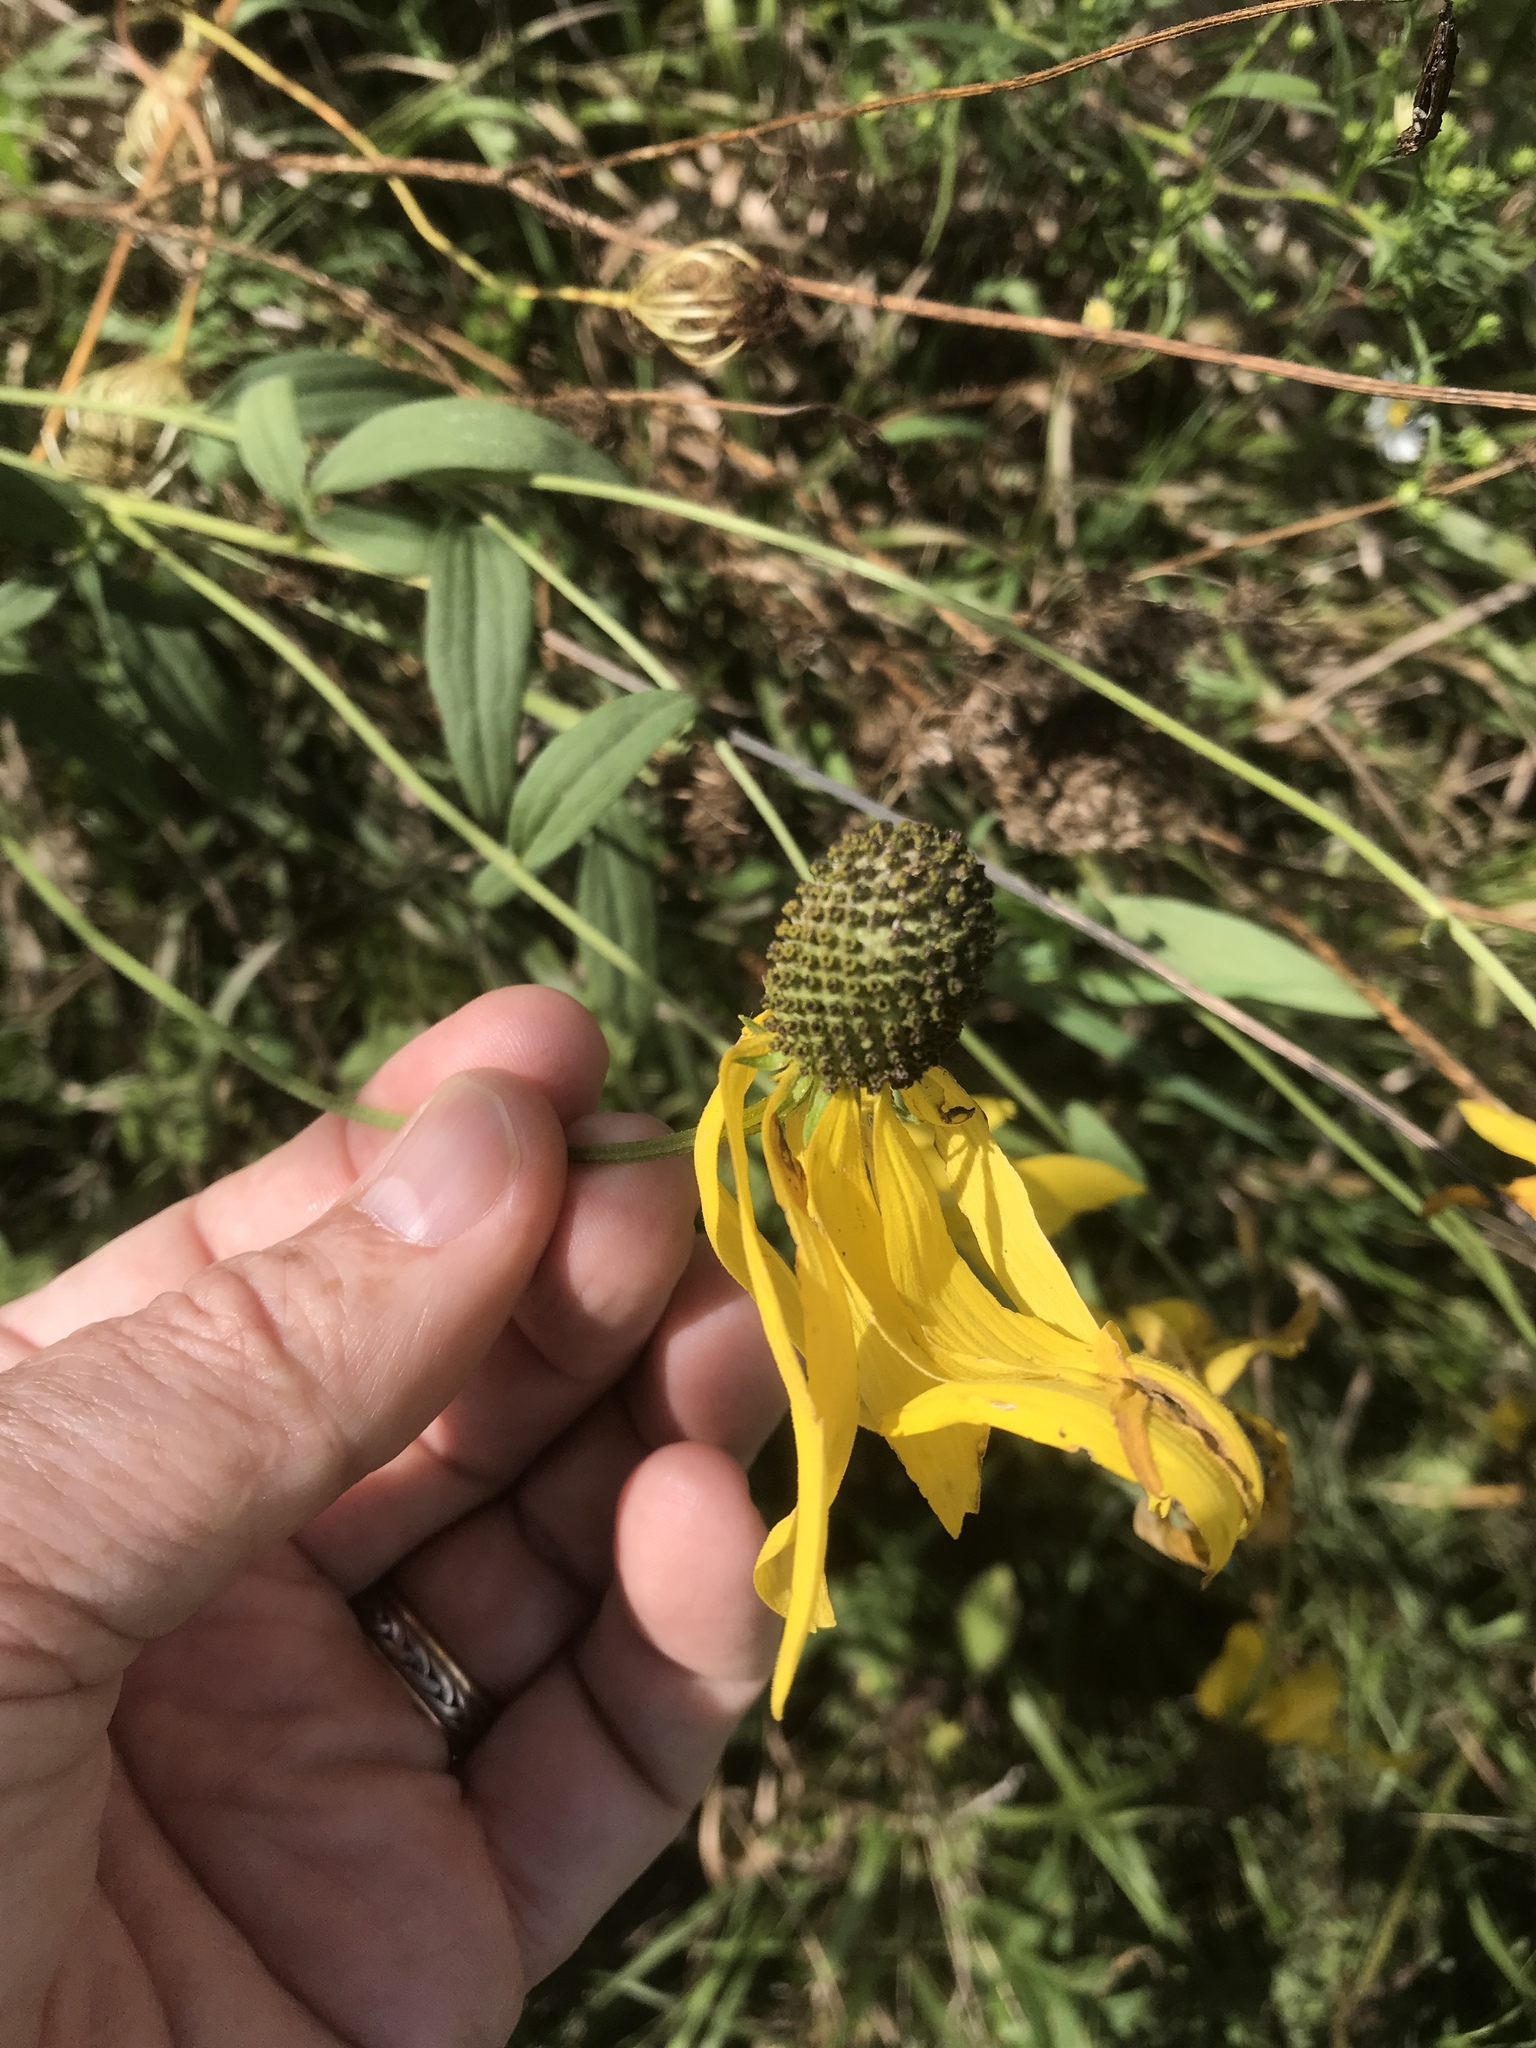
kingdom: Plantae
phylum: Tracheophyta
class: Magnoliopsida
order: Asterales
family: Asteraceae
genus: Ratibida
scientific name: Ratibida pinnata
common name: Drooping prairie-coneflower
